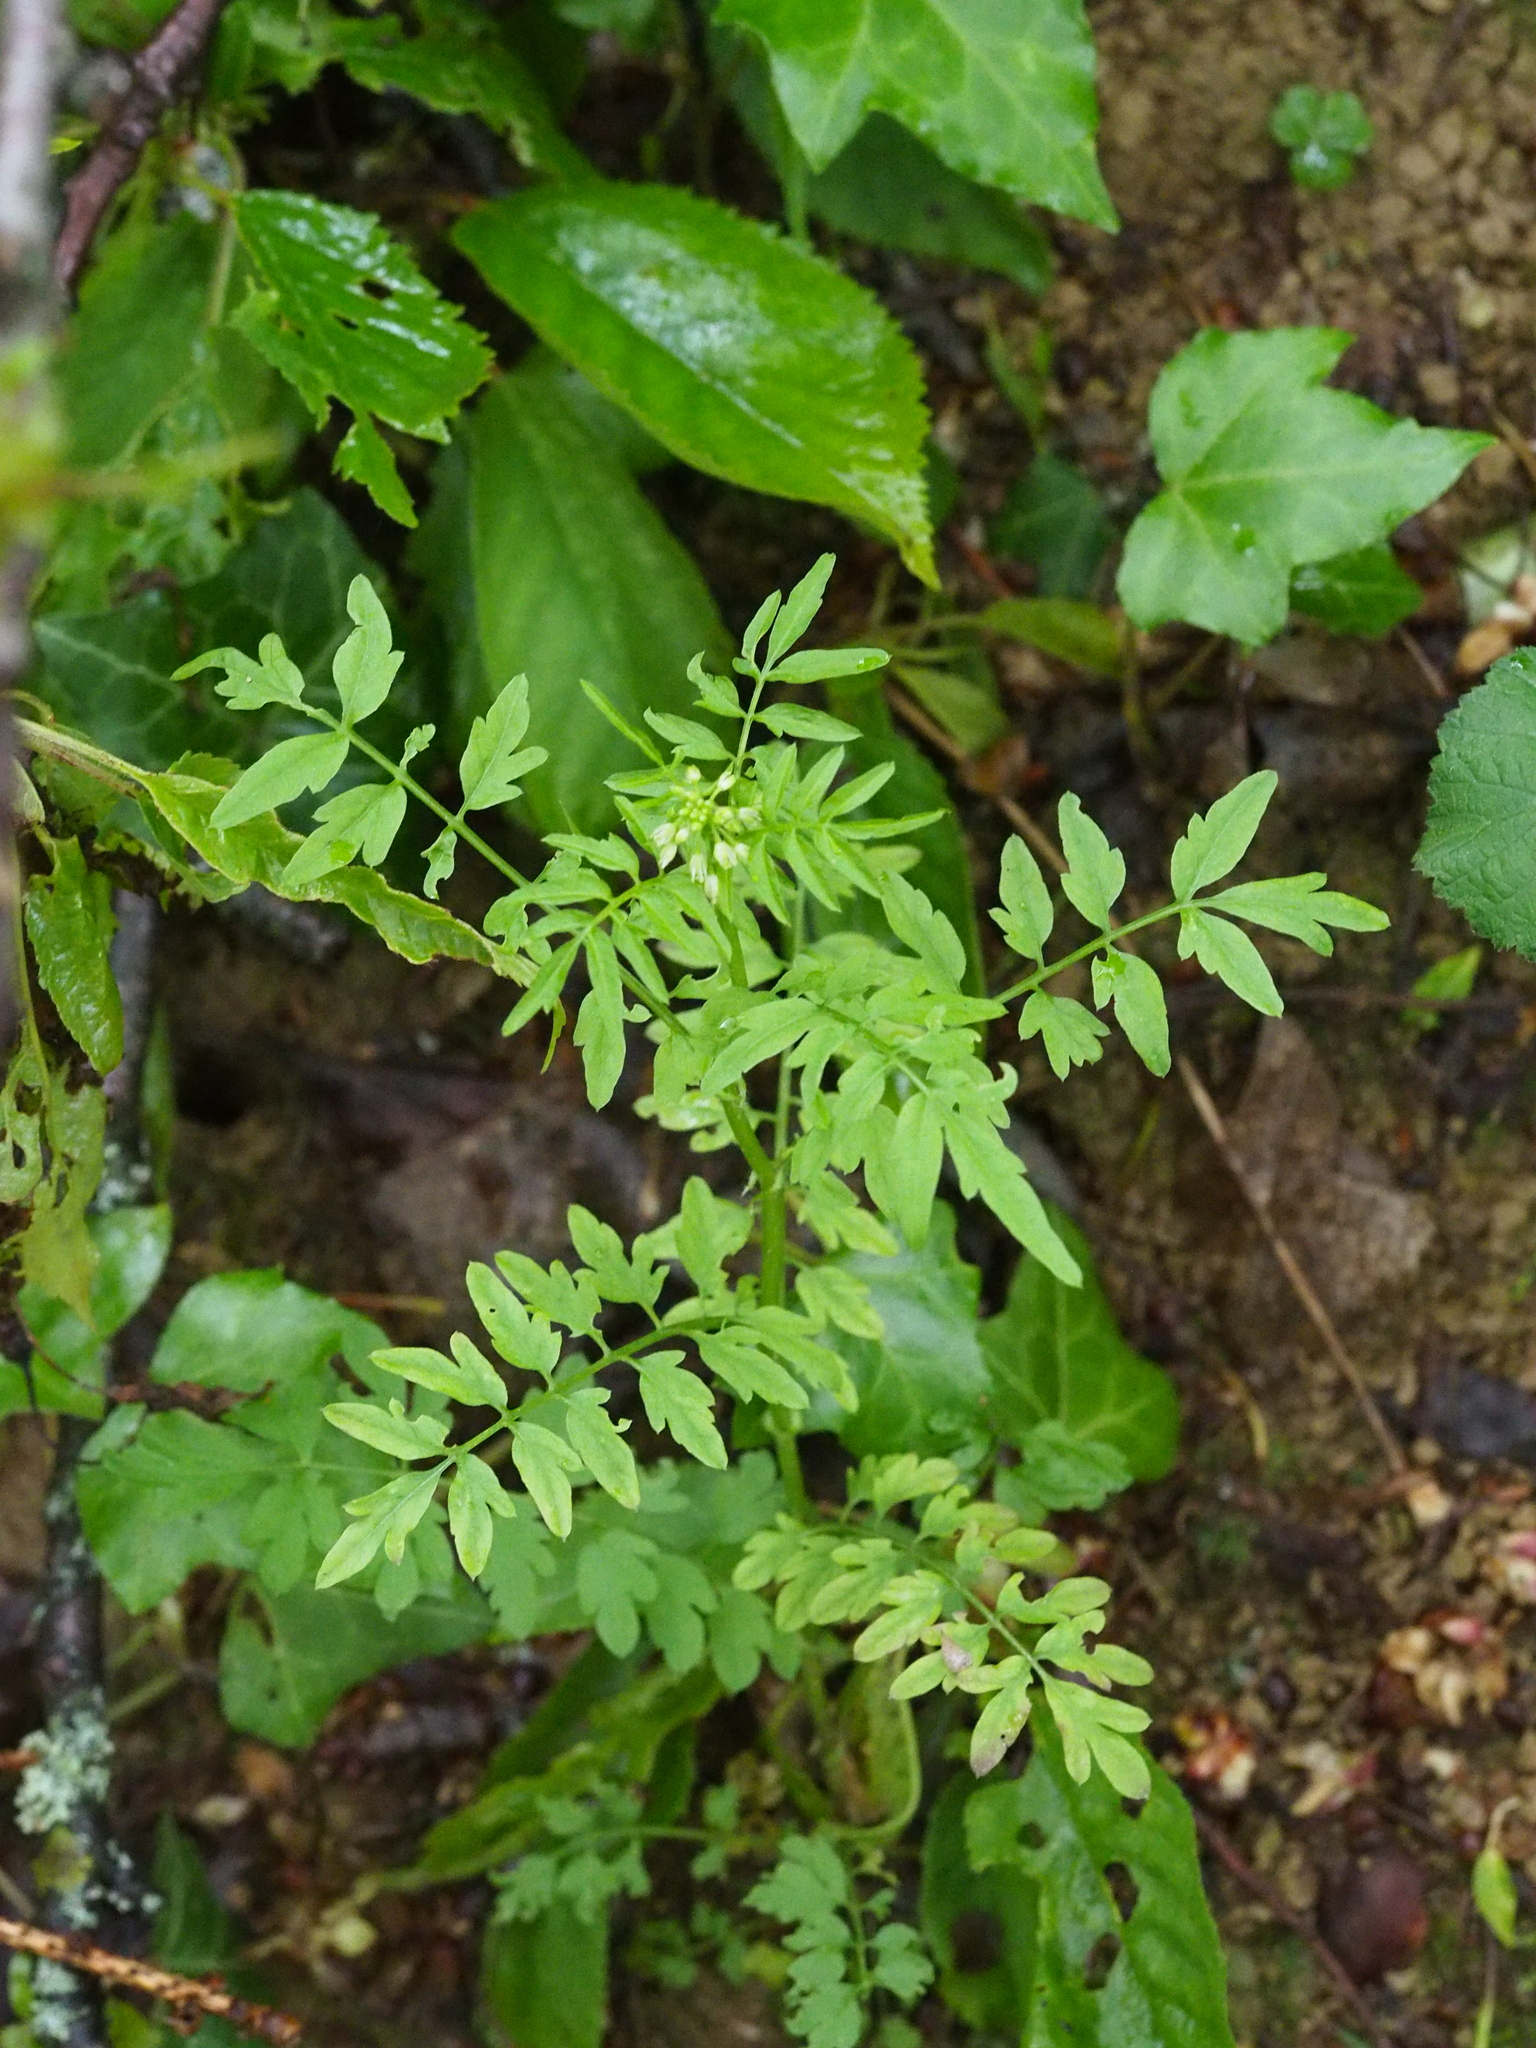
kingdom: Plantae
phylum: Tracheophyta
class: Magnoliopsida
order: Brassicales
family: Brassicaceae
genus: Cardamine
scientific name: Cardamine impatiens
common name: Narrow-leaved bitter-cress
